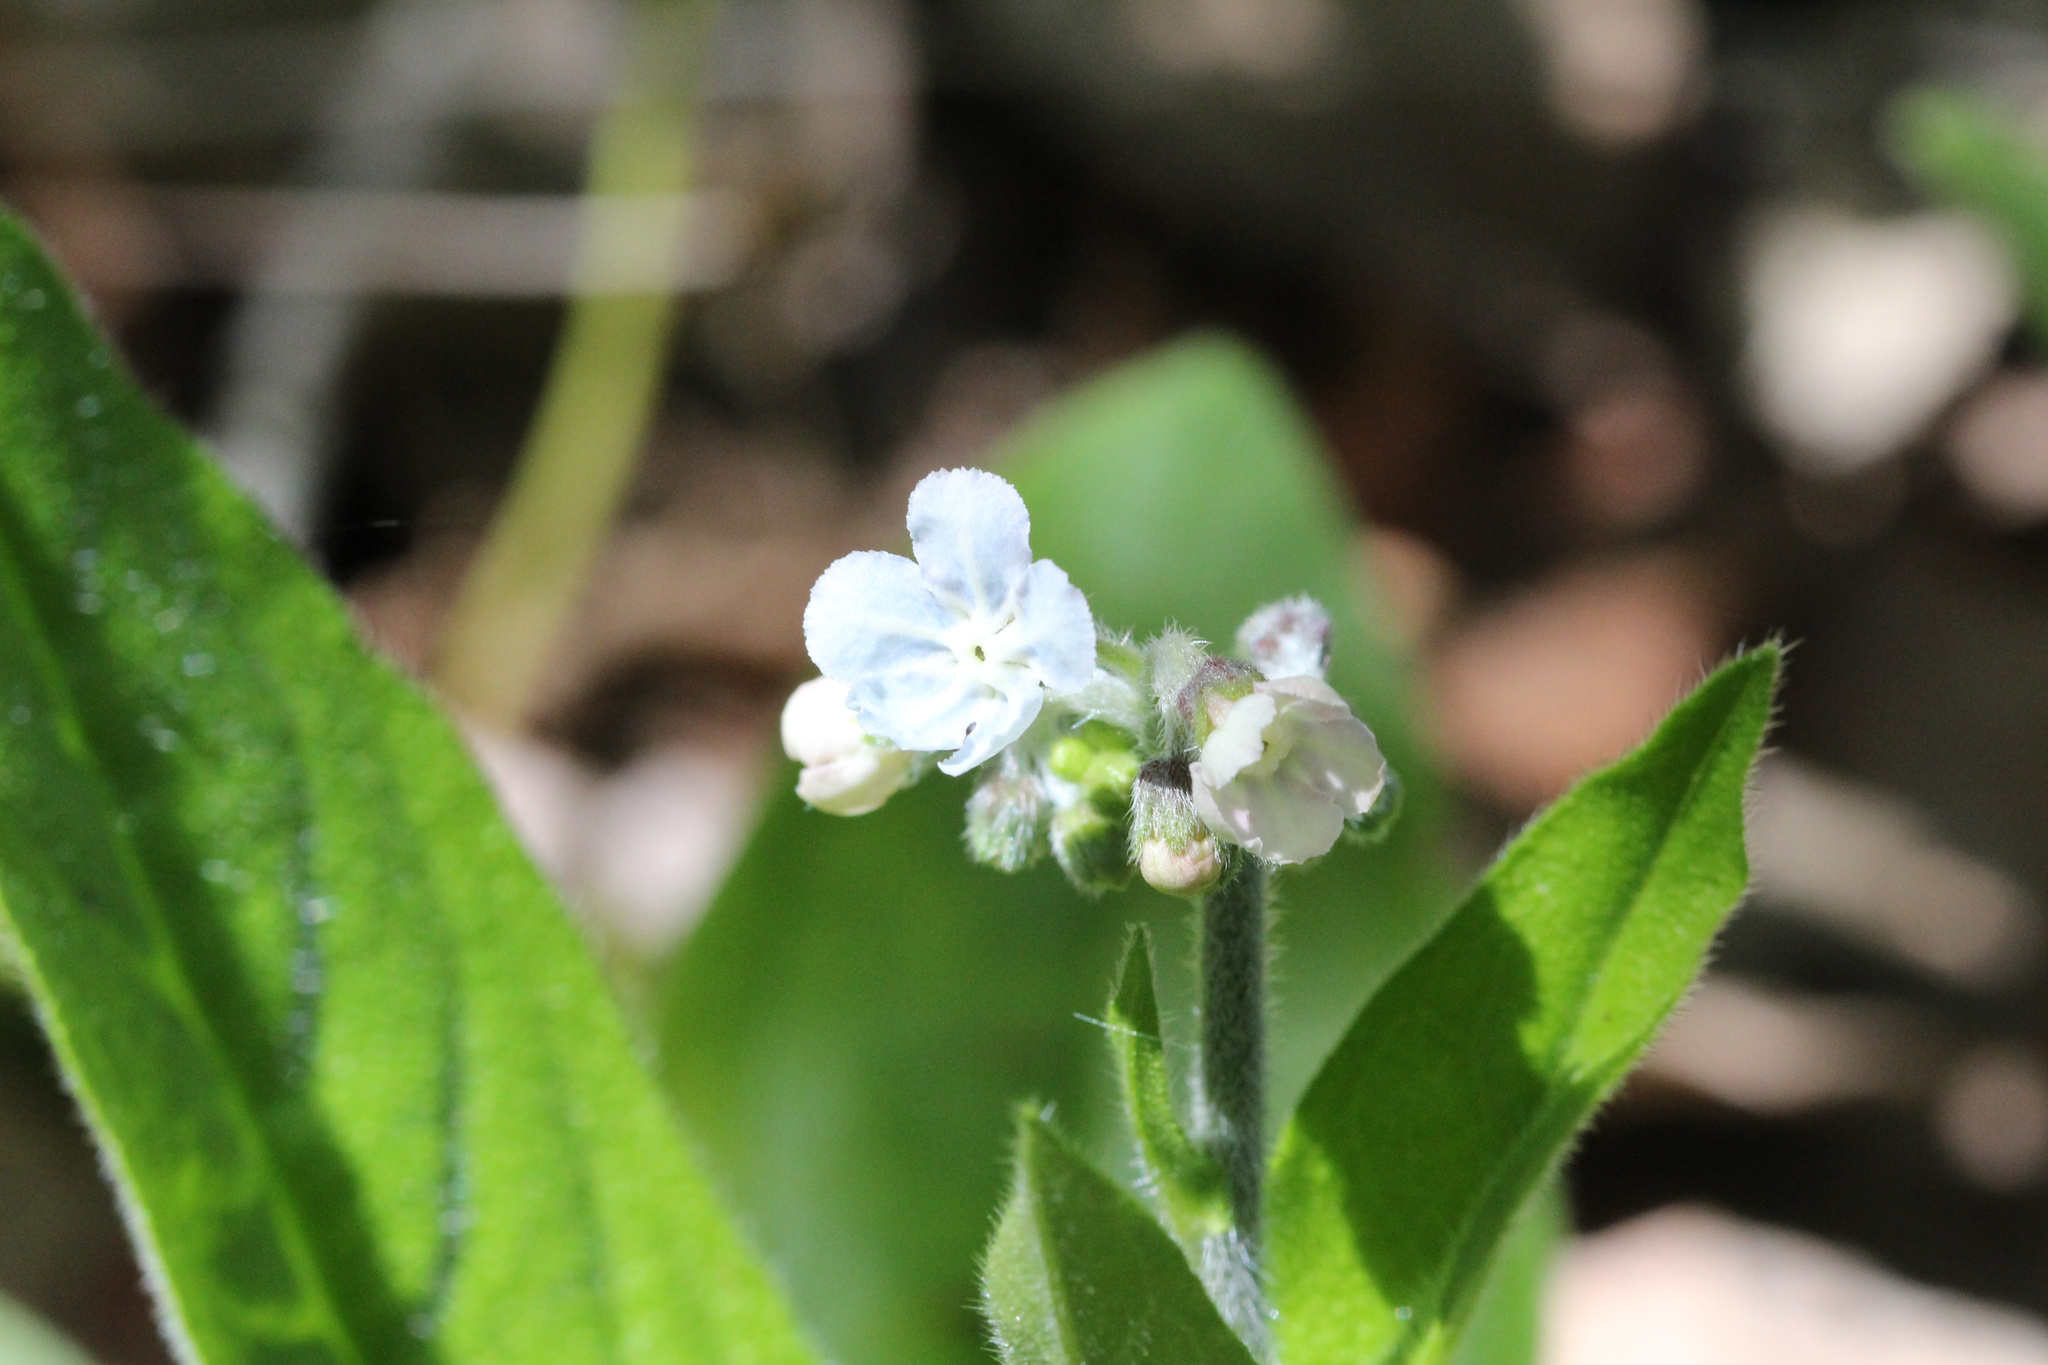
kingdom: Plantae
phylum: Tracheophyta
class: Magnoliopsida
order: Boraginales
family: Boraginaceae
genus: Andersonglossum
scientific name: Andersonglossum virginianum
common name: Wild comfrey
